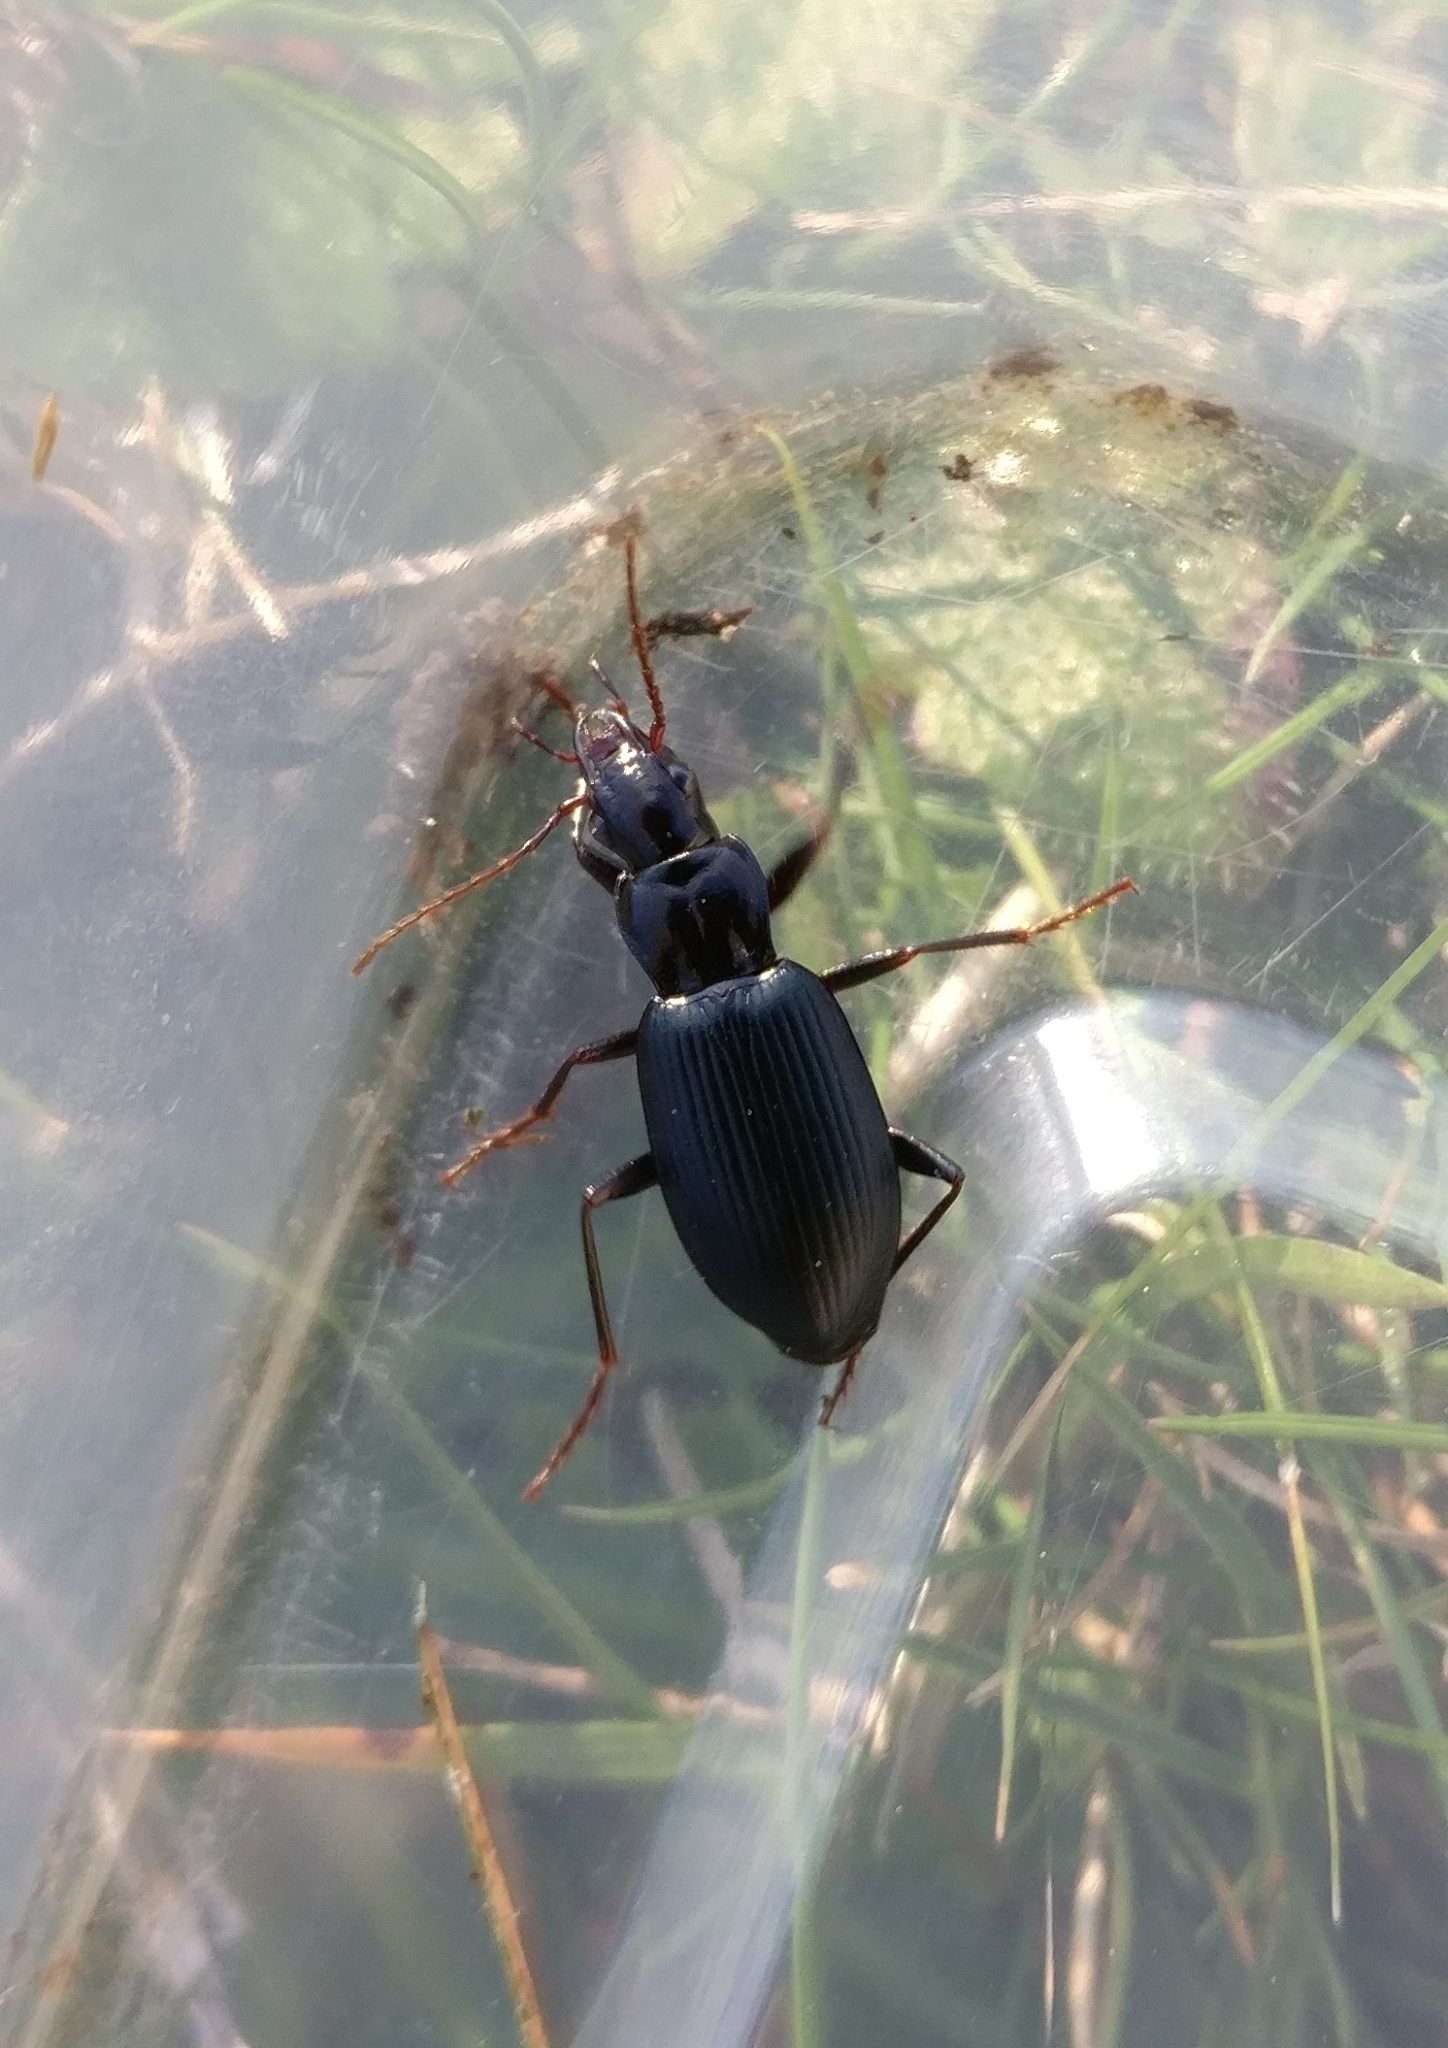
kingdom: Animalia
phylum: Arthropoda
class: Insecta
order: Coleoptera
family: Carabidae
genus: Laemostenus
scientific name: Laemostenus complanatus
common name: Cosmopolitan ground beetle
